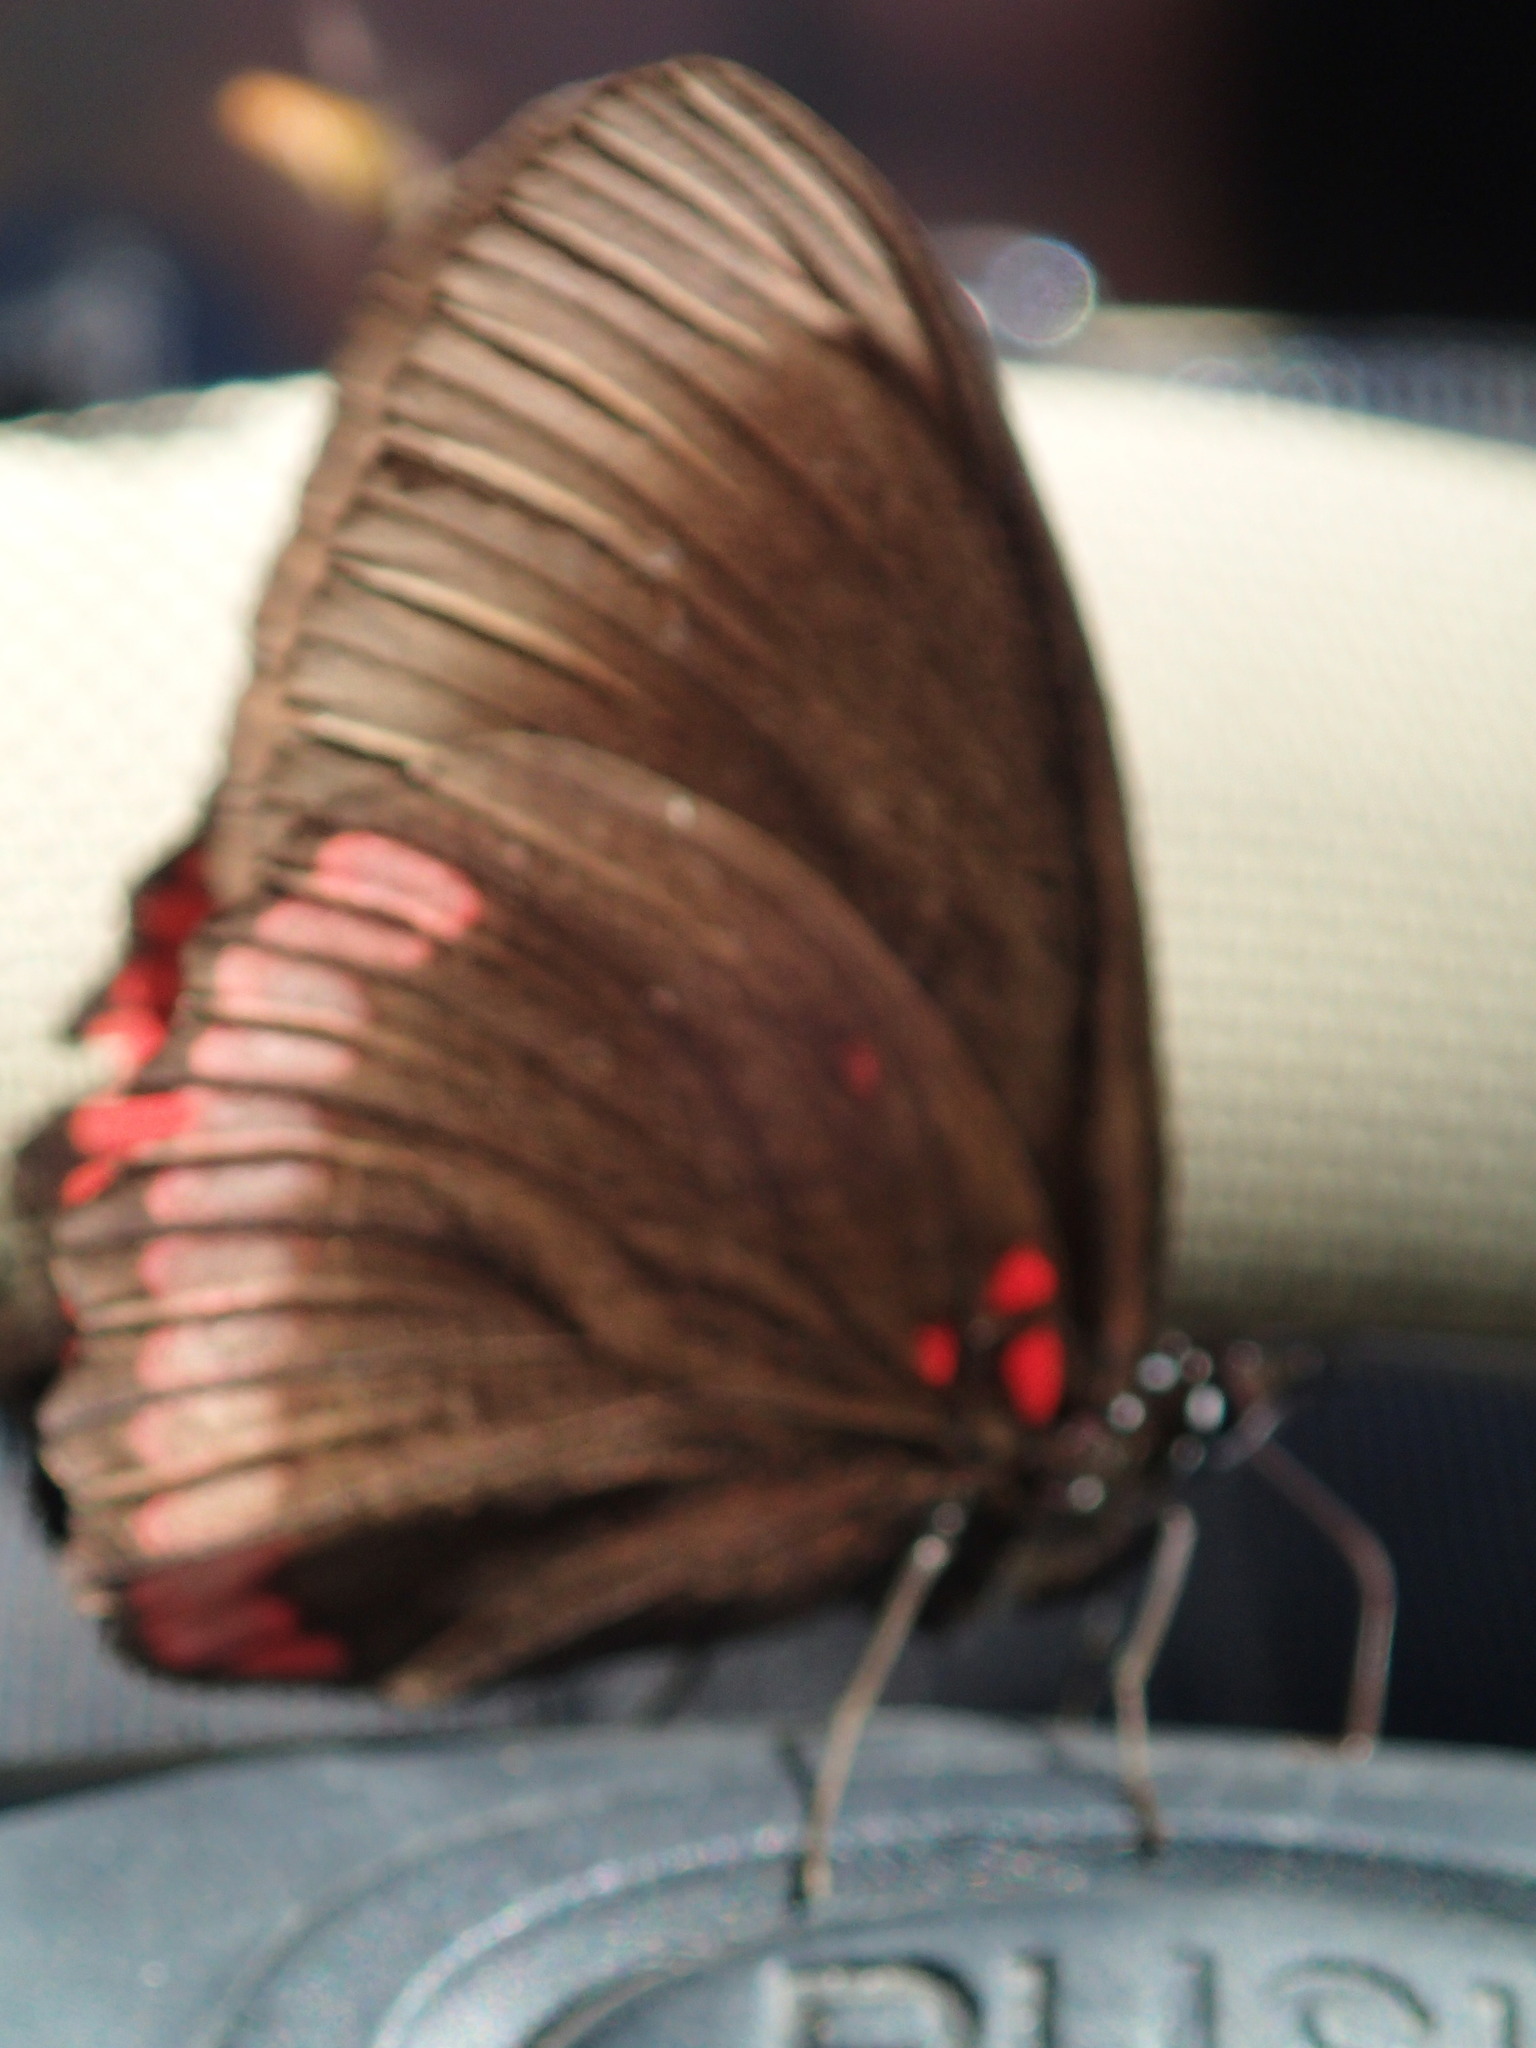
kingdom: Animalia
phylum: Arthropoda
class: Insecta
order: Lepidoptera
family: Sesiidae
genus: Sesia
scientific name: Sesia Biblis hyperia
